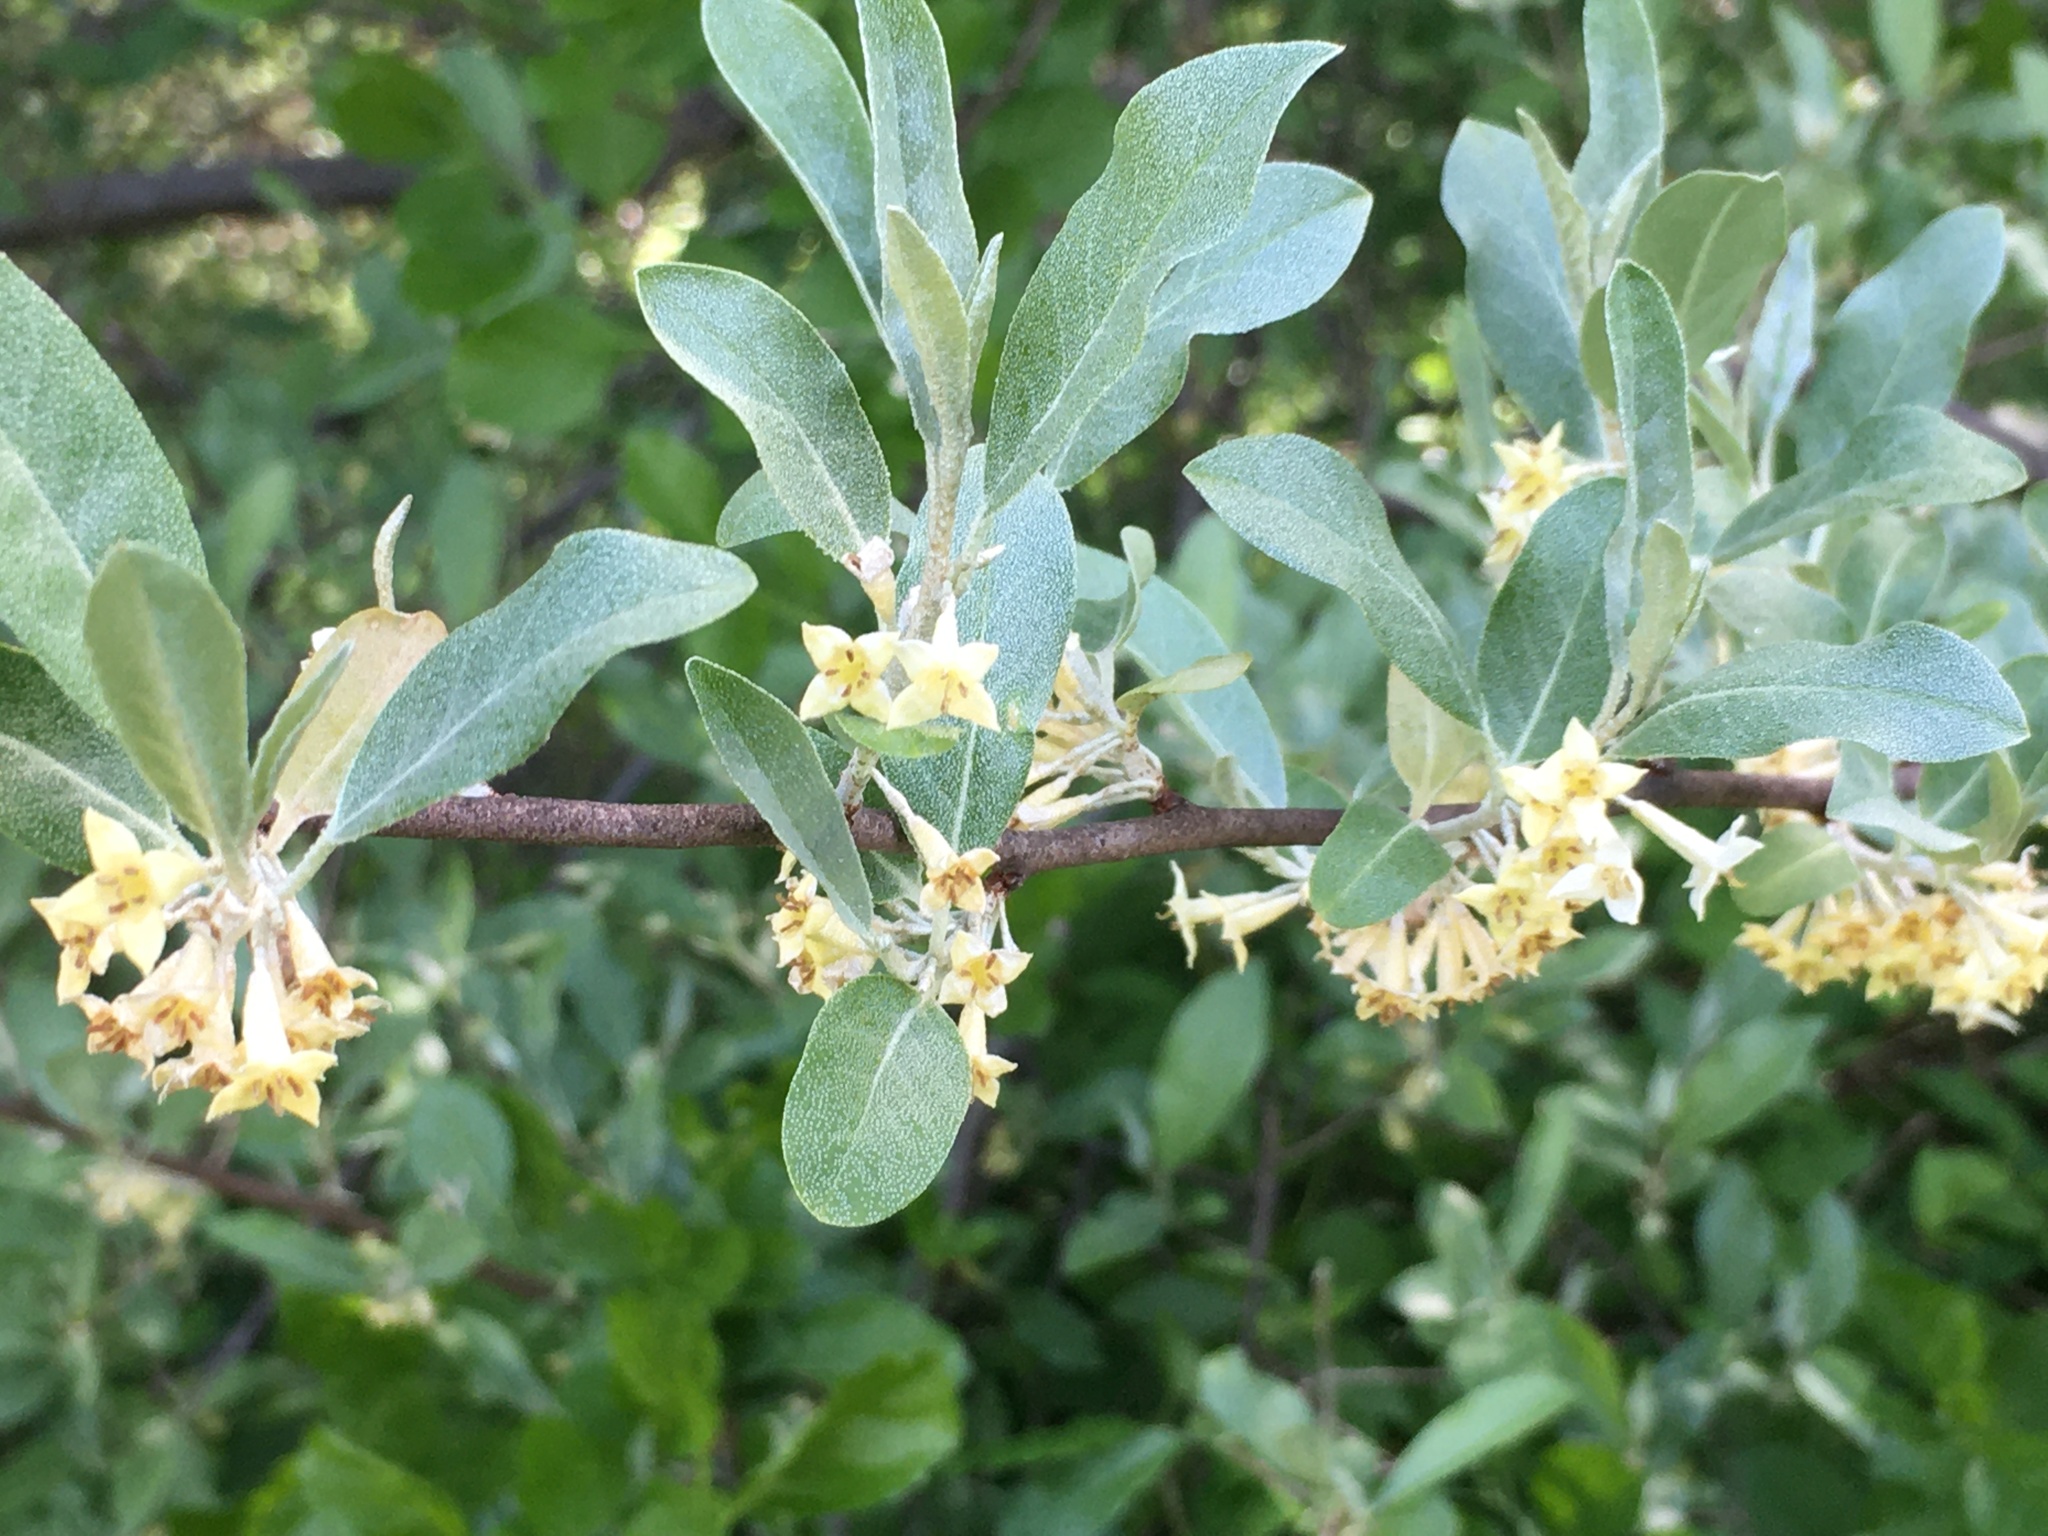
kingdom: Plantae
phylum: Tracheophyta
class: Magnoliopsida
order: Rosales
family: Elaeagnaceae
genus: Elaeagnus
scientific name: Elaeagnus umbellata
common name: Autumn olive
